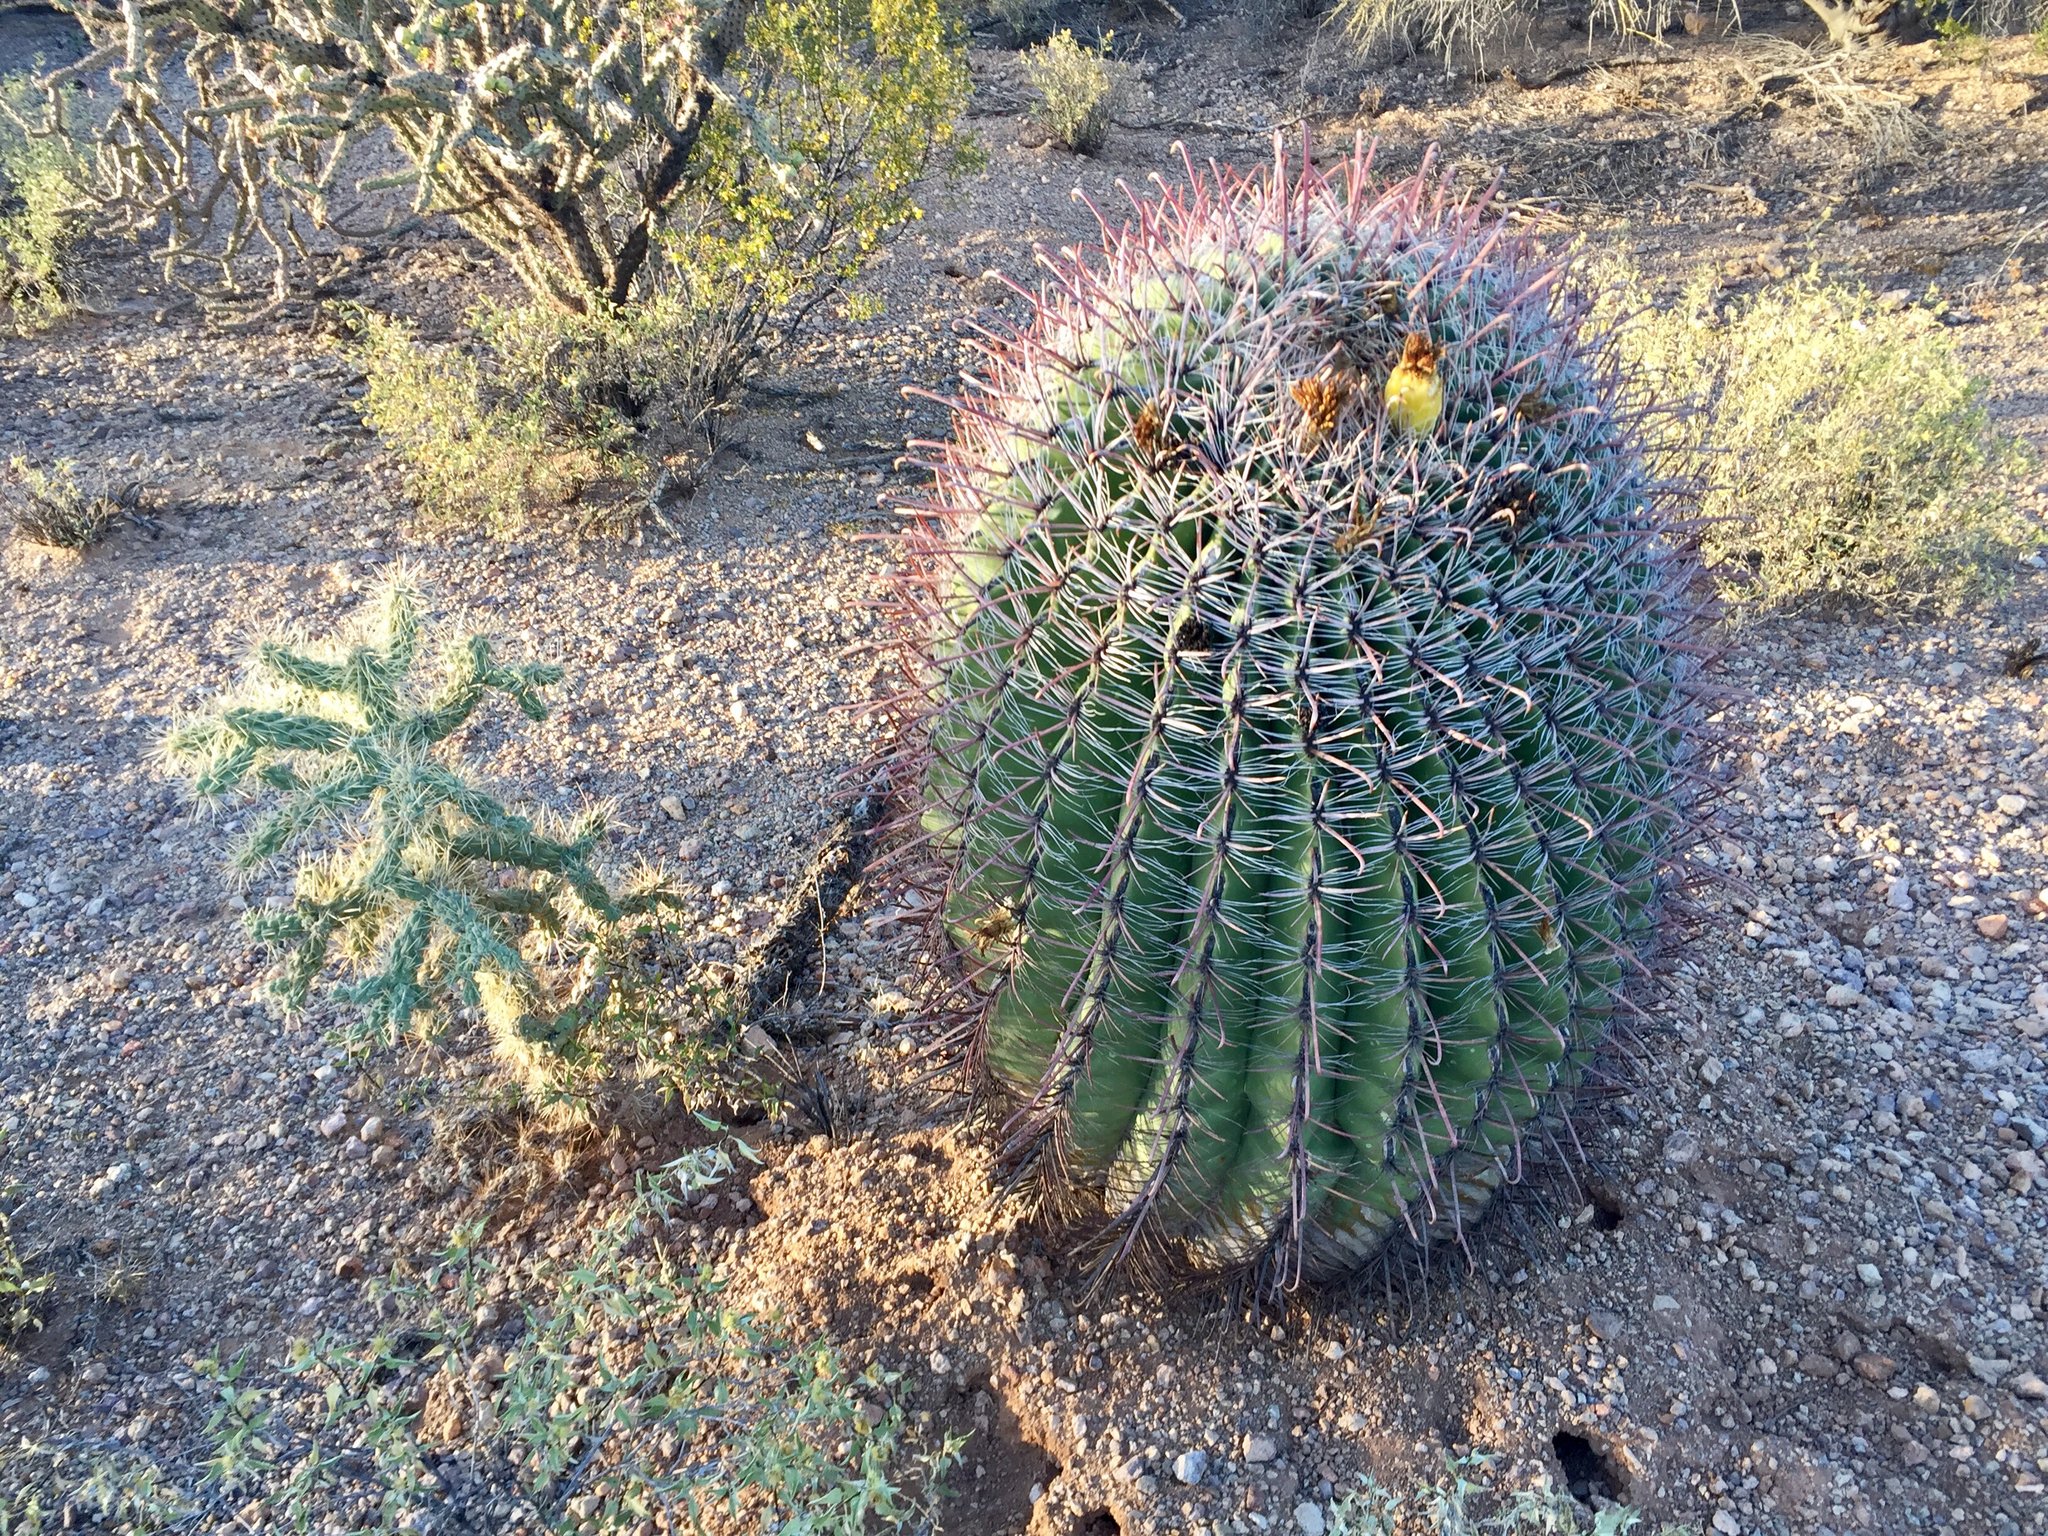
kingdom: Plantae
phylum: Tracheophyta
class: Magnoliopsida
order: Caryophyllales
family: Cactaceae
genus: Ferocactus
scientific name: Ferocactus wislizeni
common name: Candy barrel cactus
